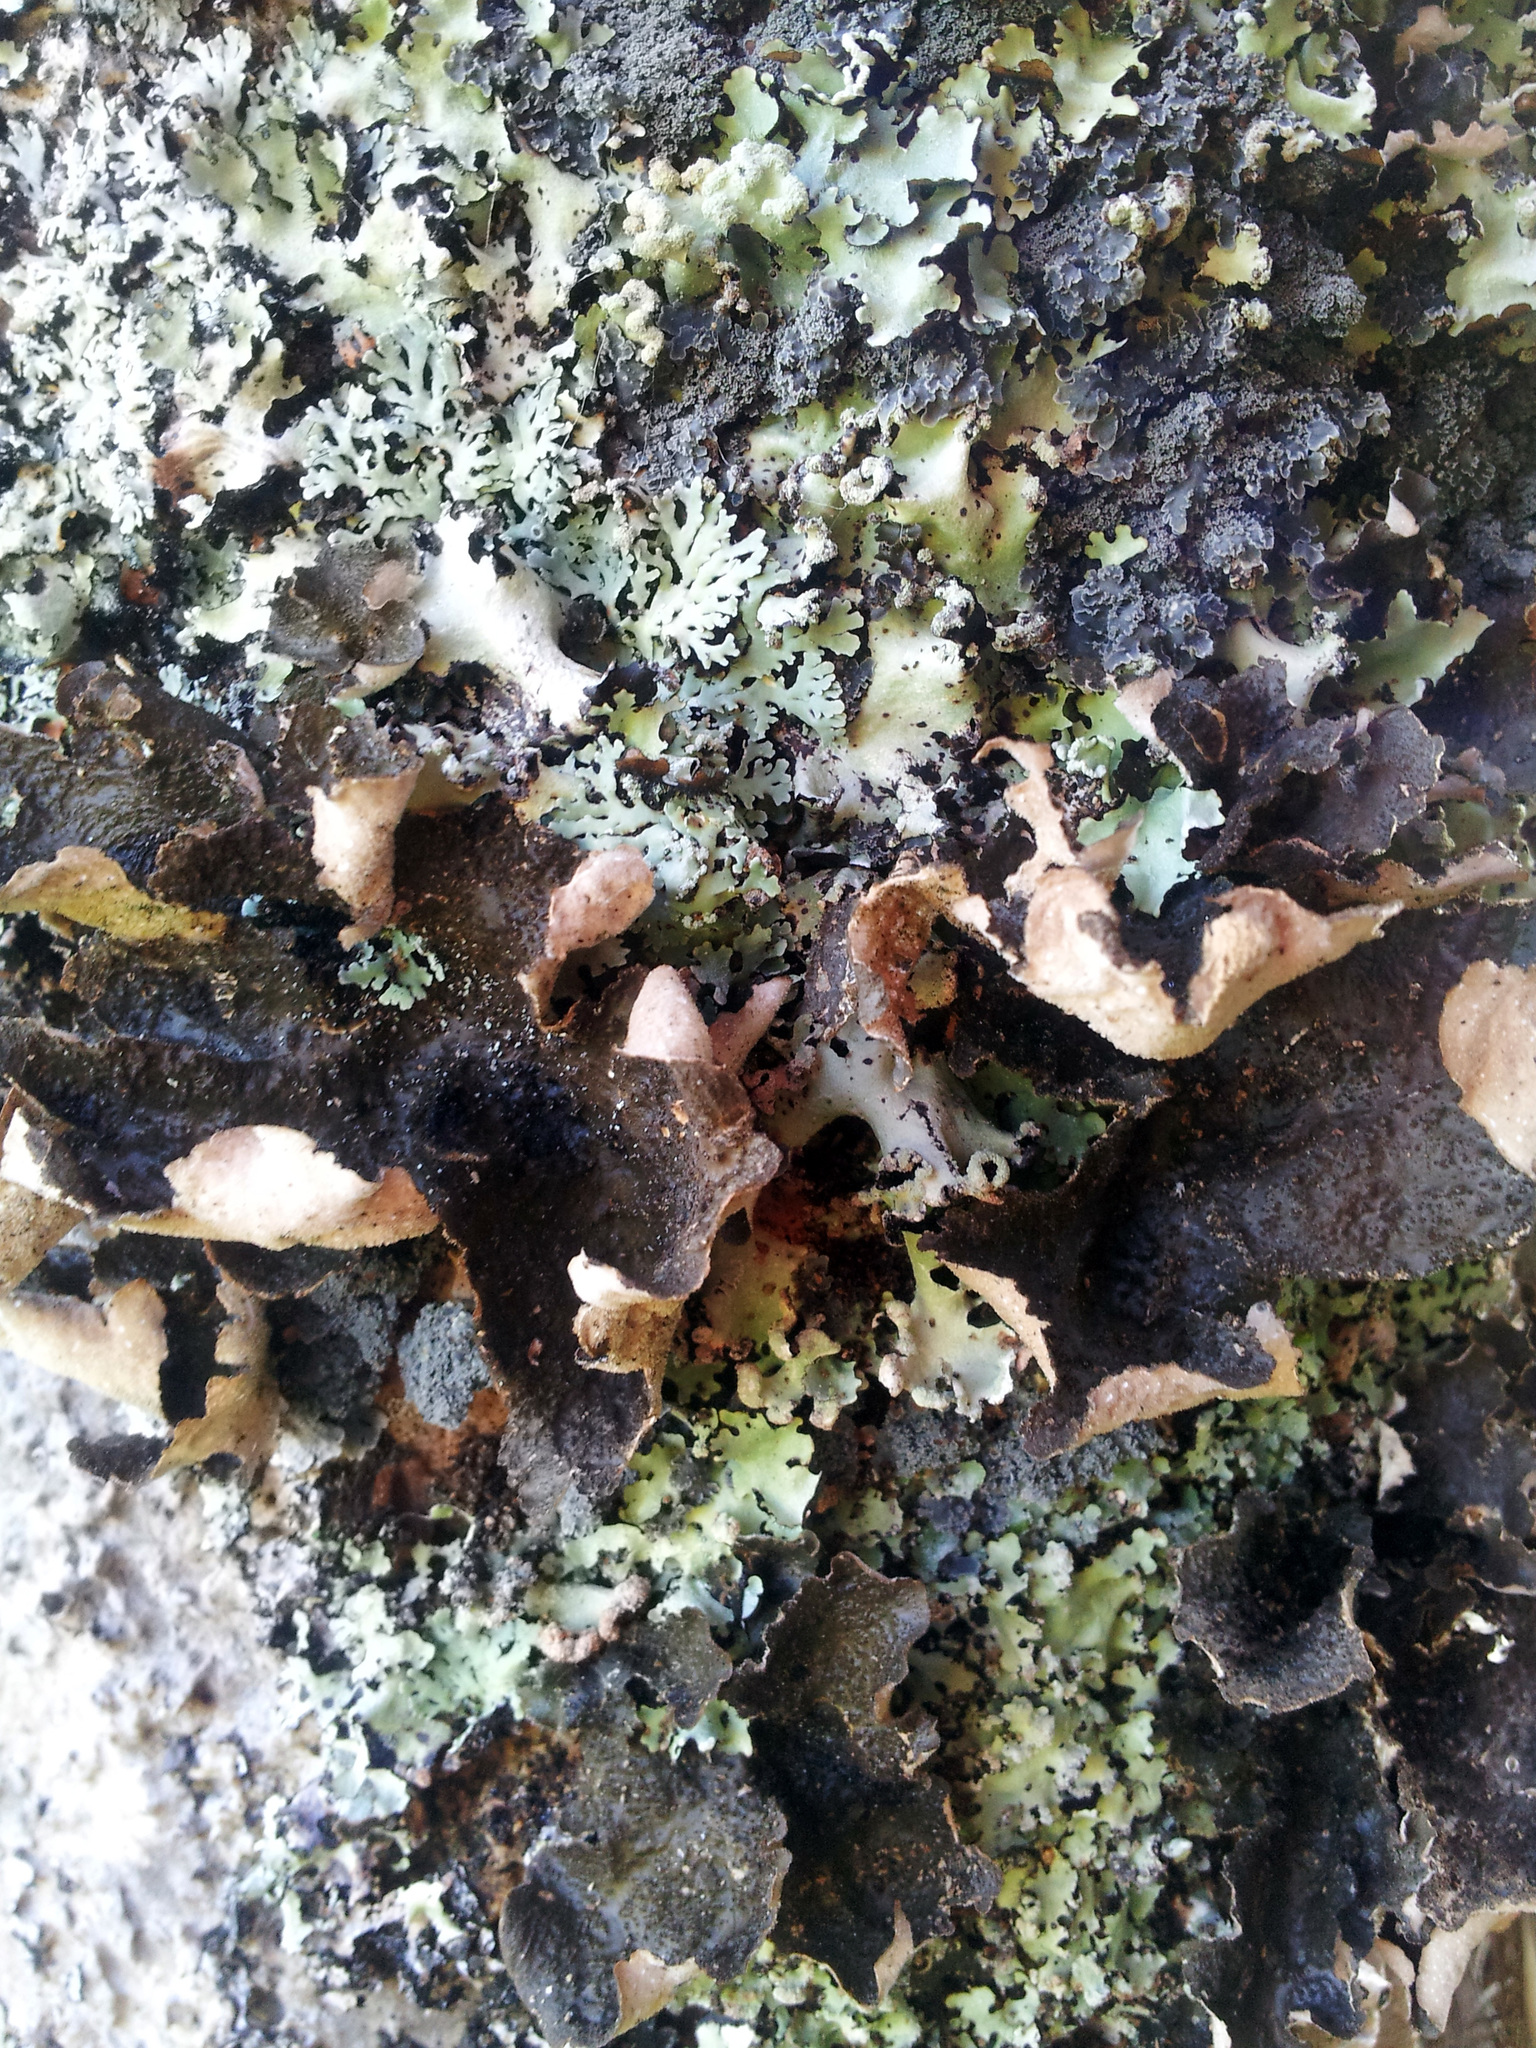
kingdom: Fungi
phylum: Ascomycota
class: Lecanoromycetes
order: Peltigerales
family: Lobariaceae
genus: Sticta
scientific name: Sticta fuliginosa
